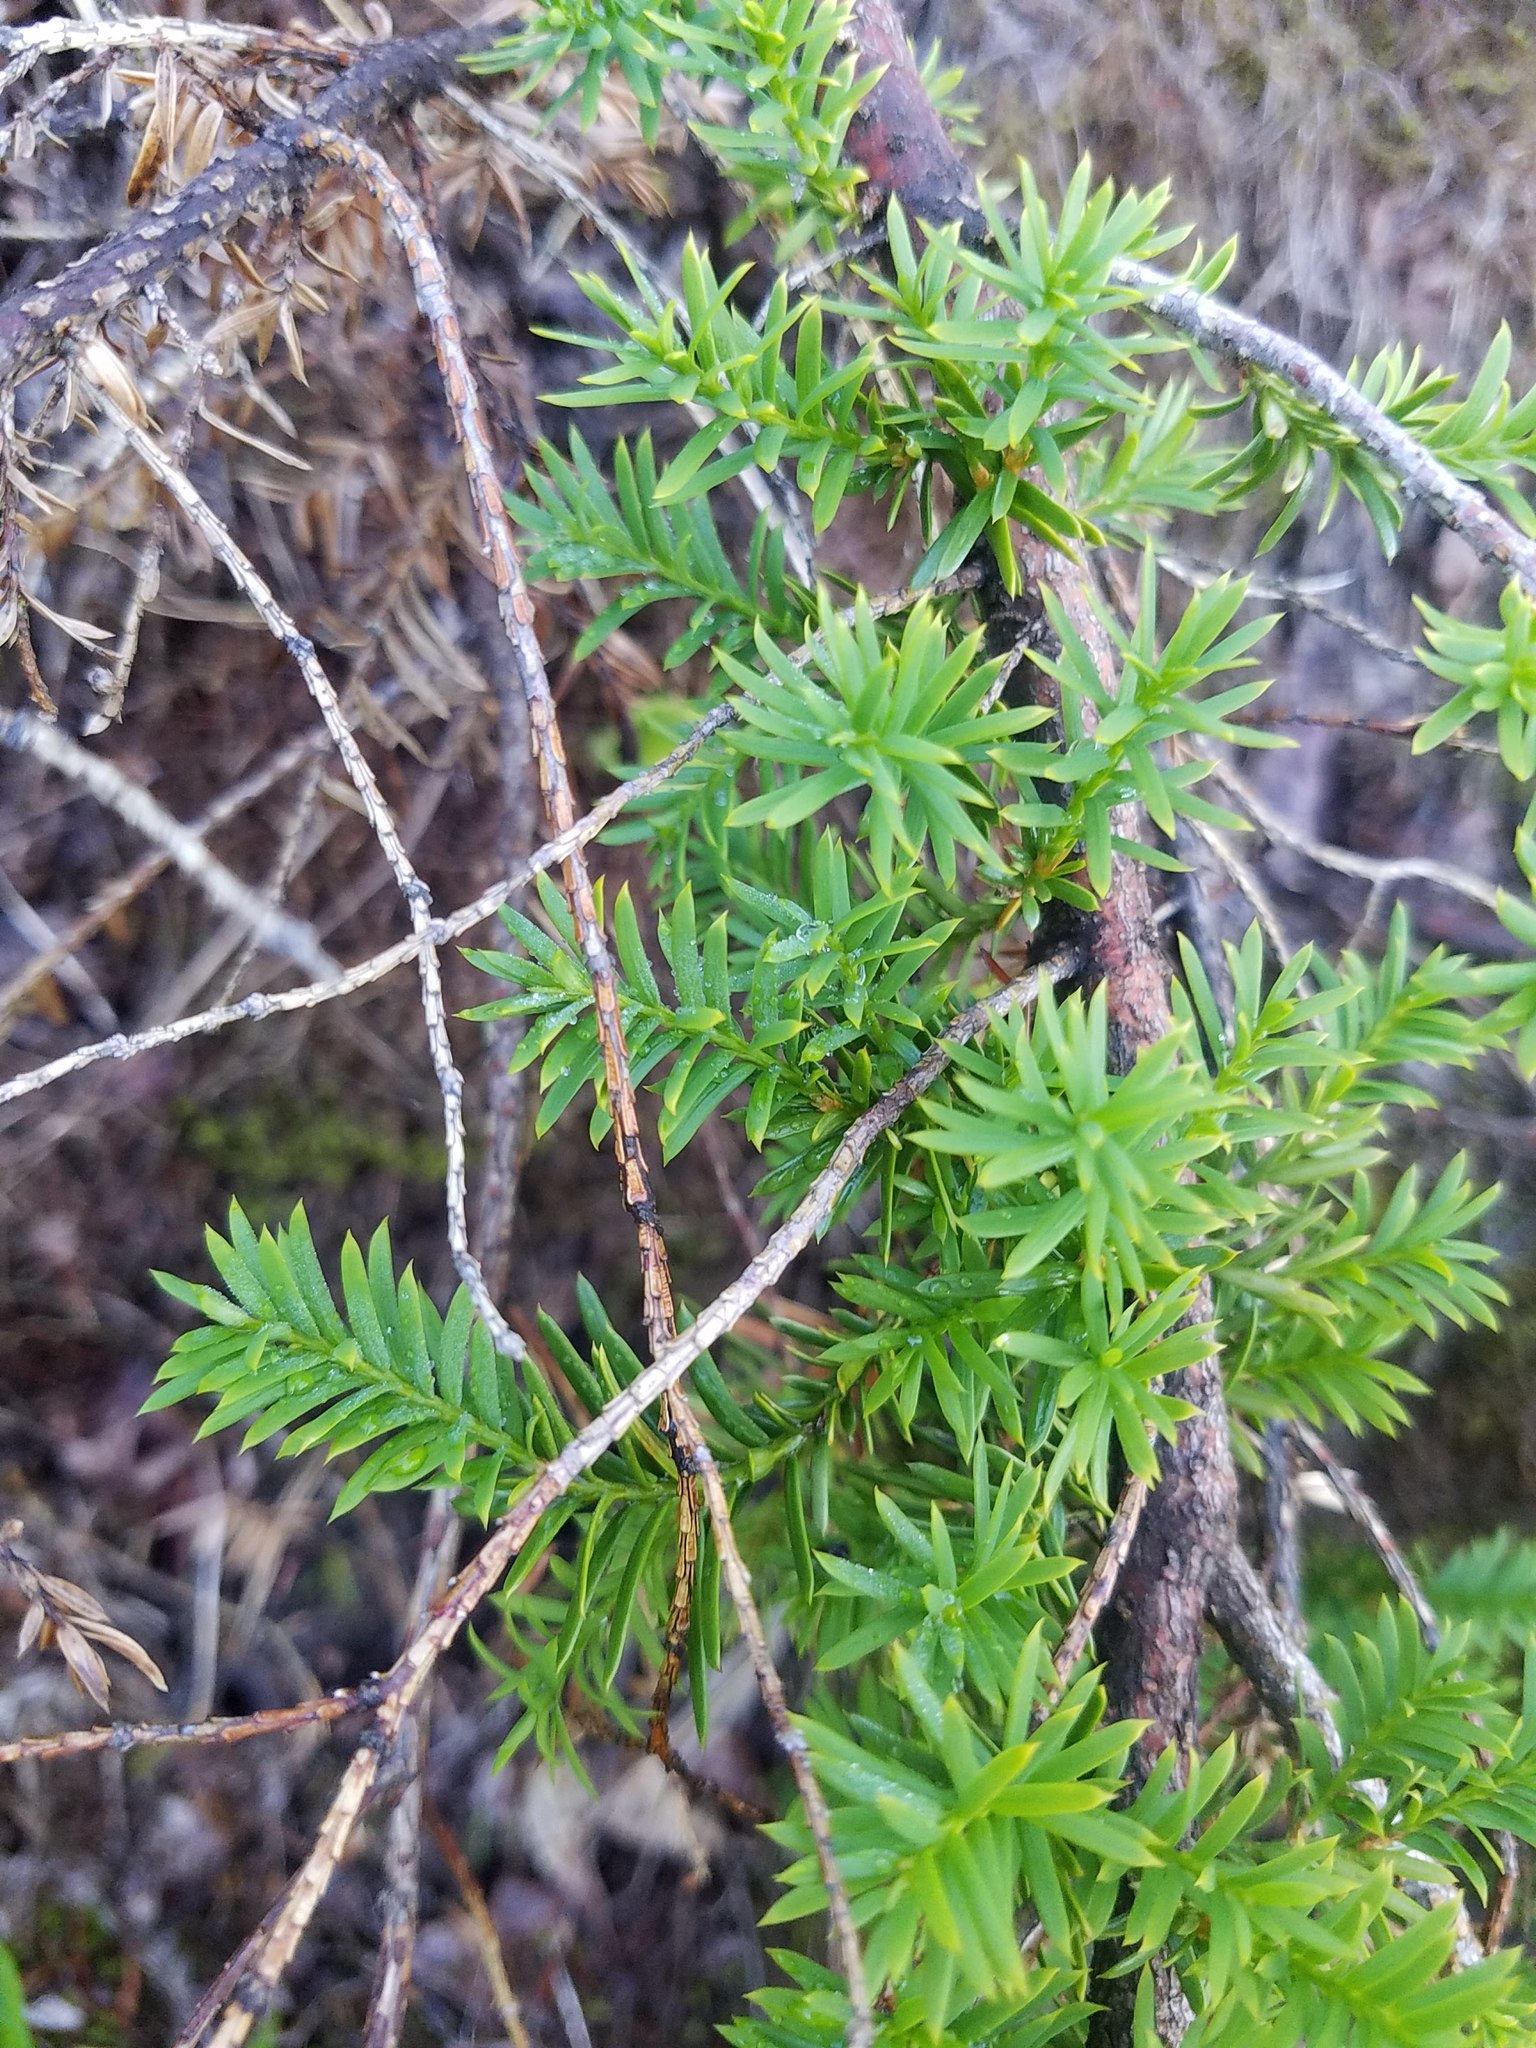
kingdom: Plantae
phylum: Tracheophyta
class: Pinopsida
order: Pinales
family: Taxaceae
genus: Taxus
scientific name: Taxus canadensis
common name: American yew
